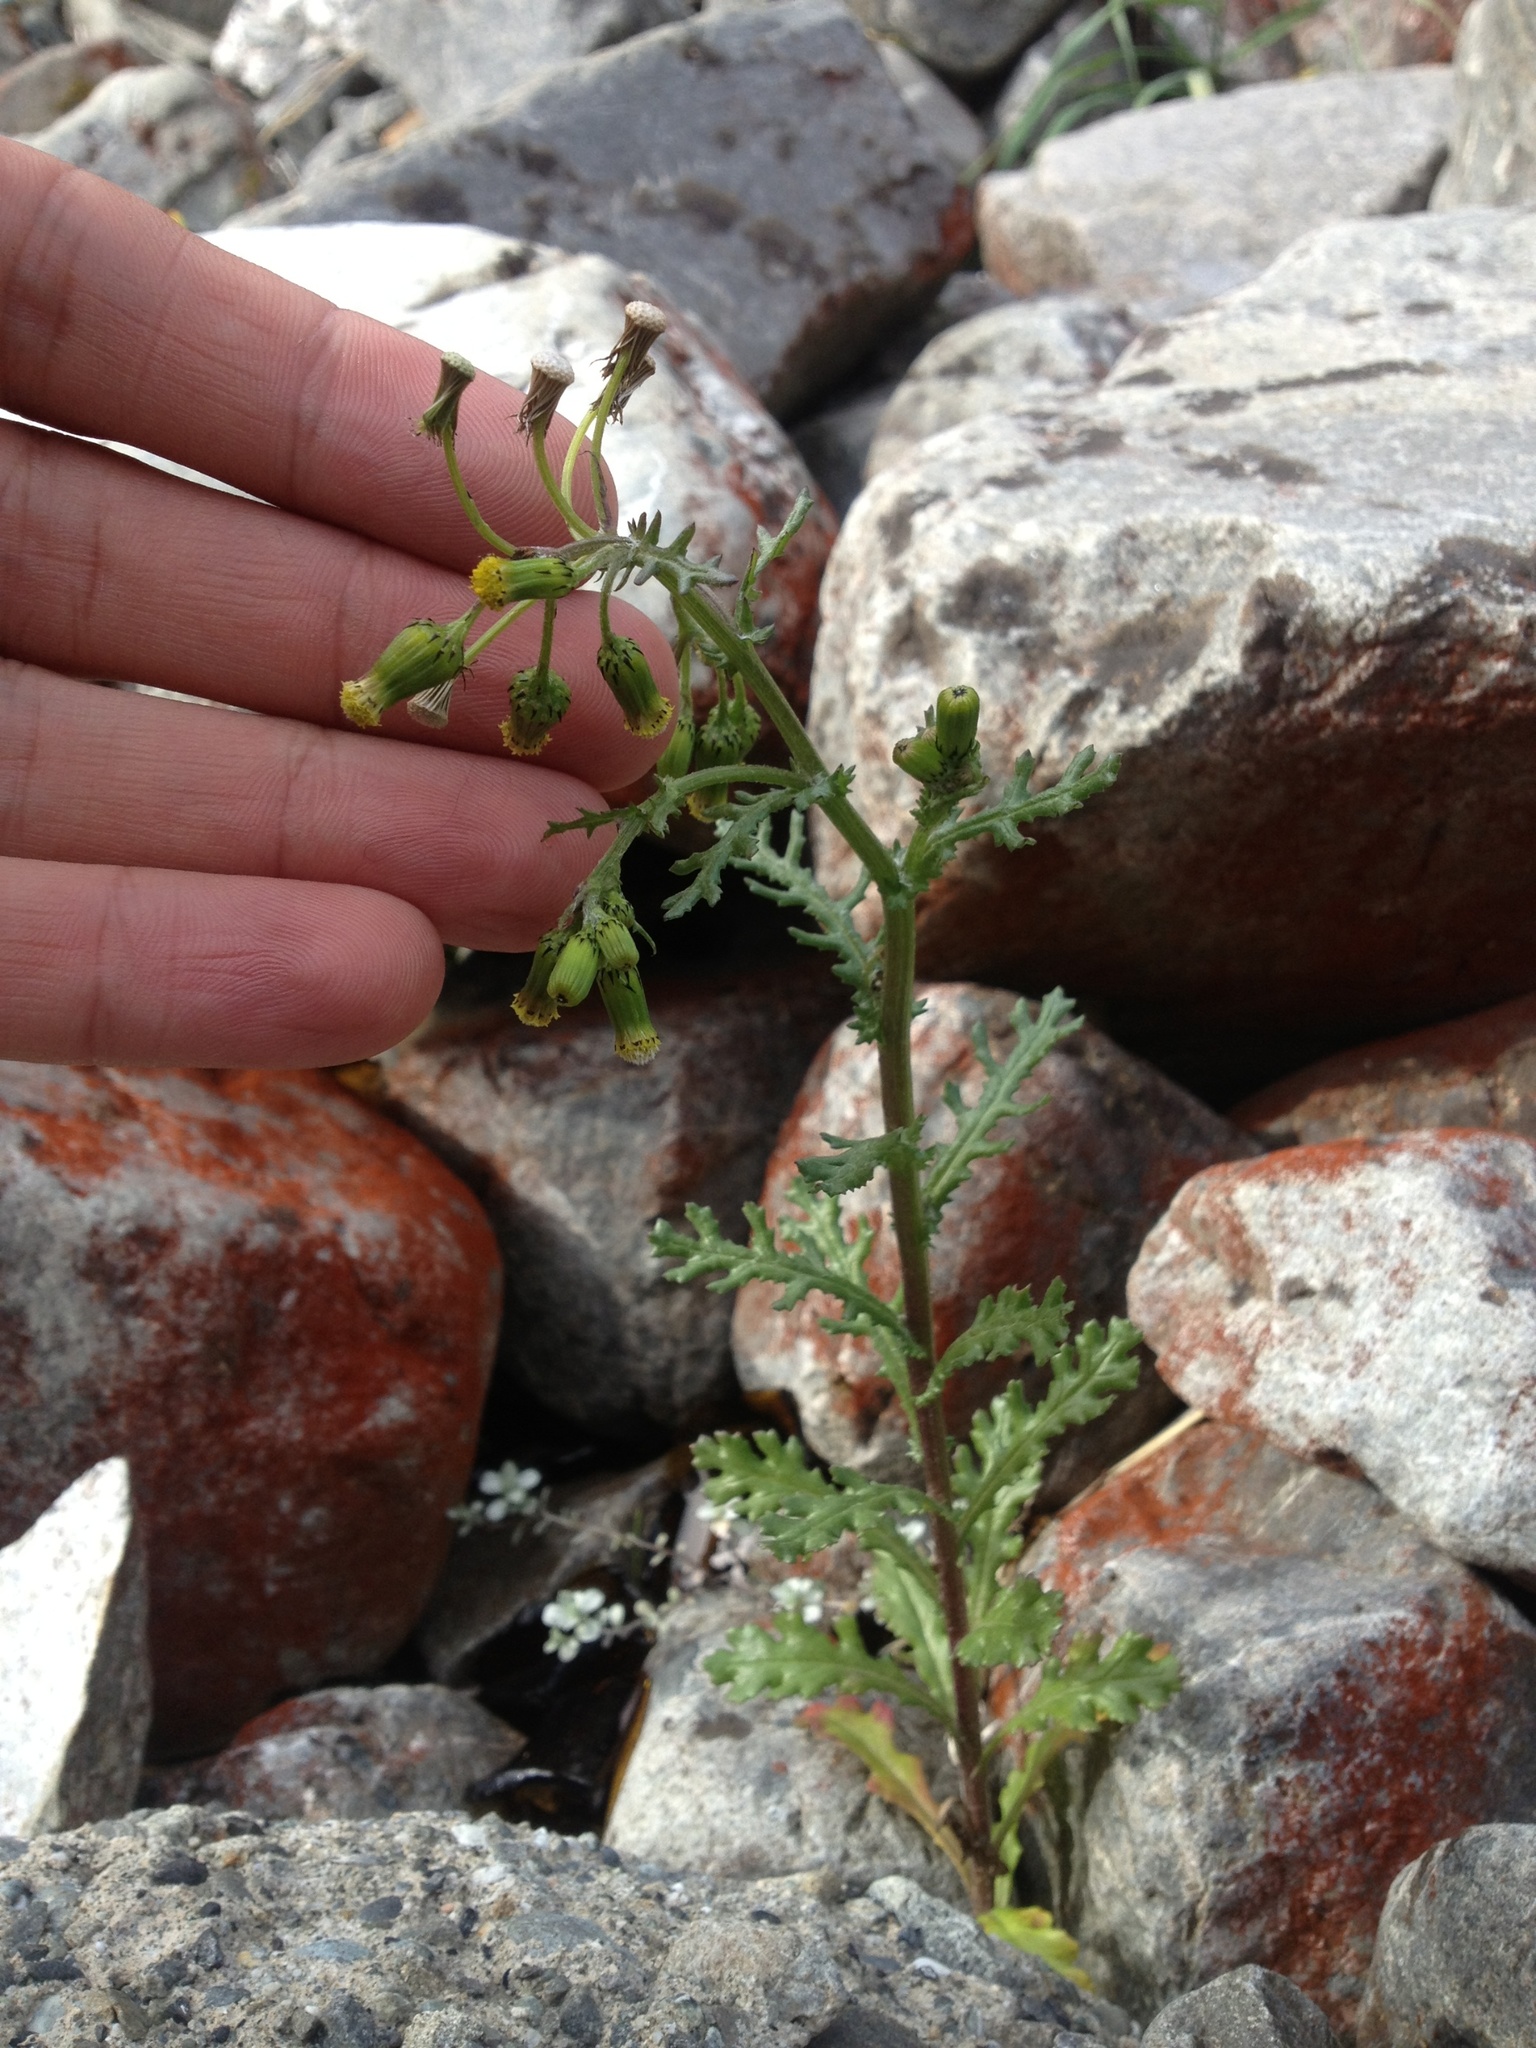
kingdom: Plantae
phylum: Tracheophyta
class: Magnoliopsida
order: Asterales
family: Asteraceae
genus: Senecio
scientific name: Senecio vulgaris
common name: Old-man-in-the-spring
